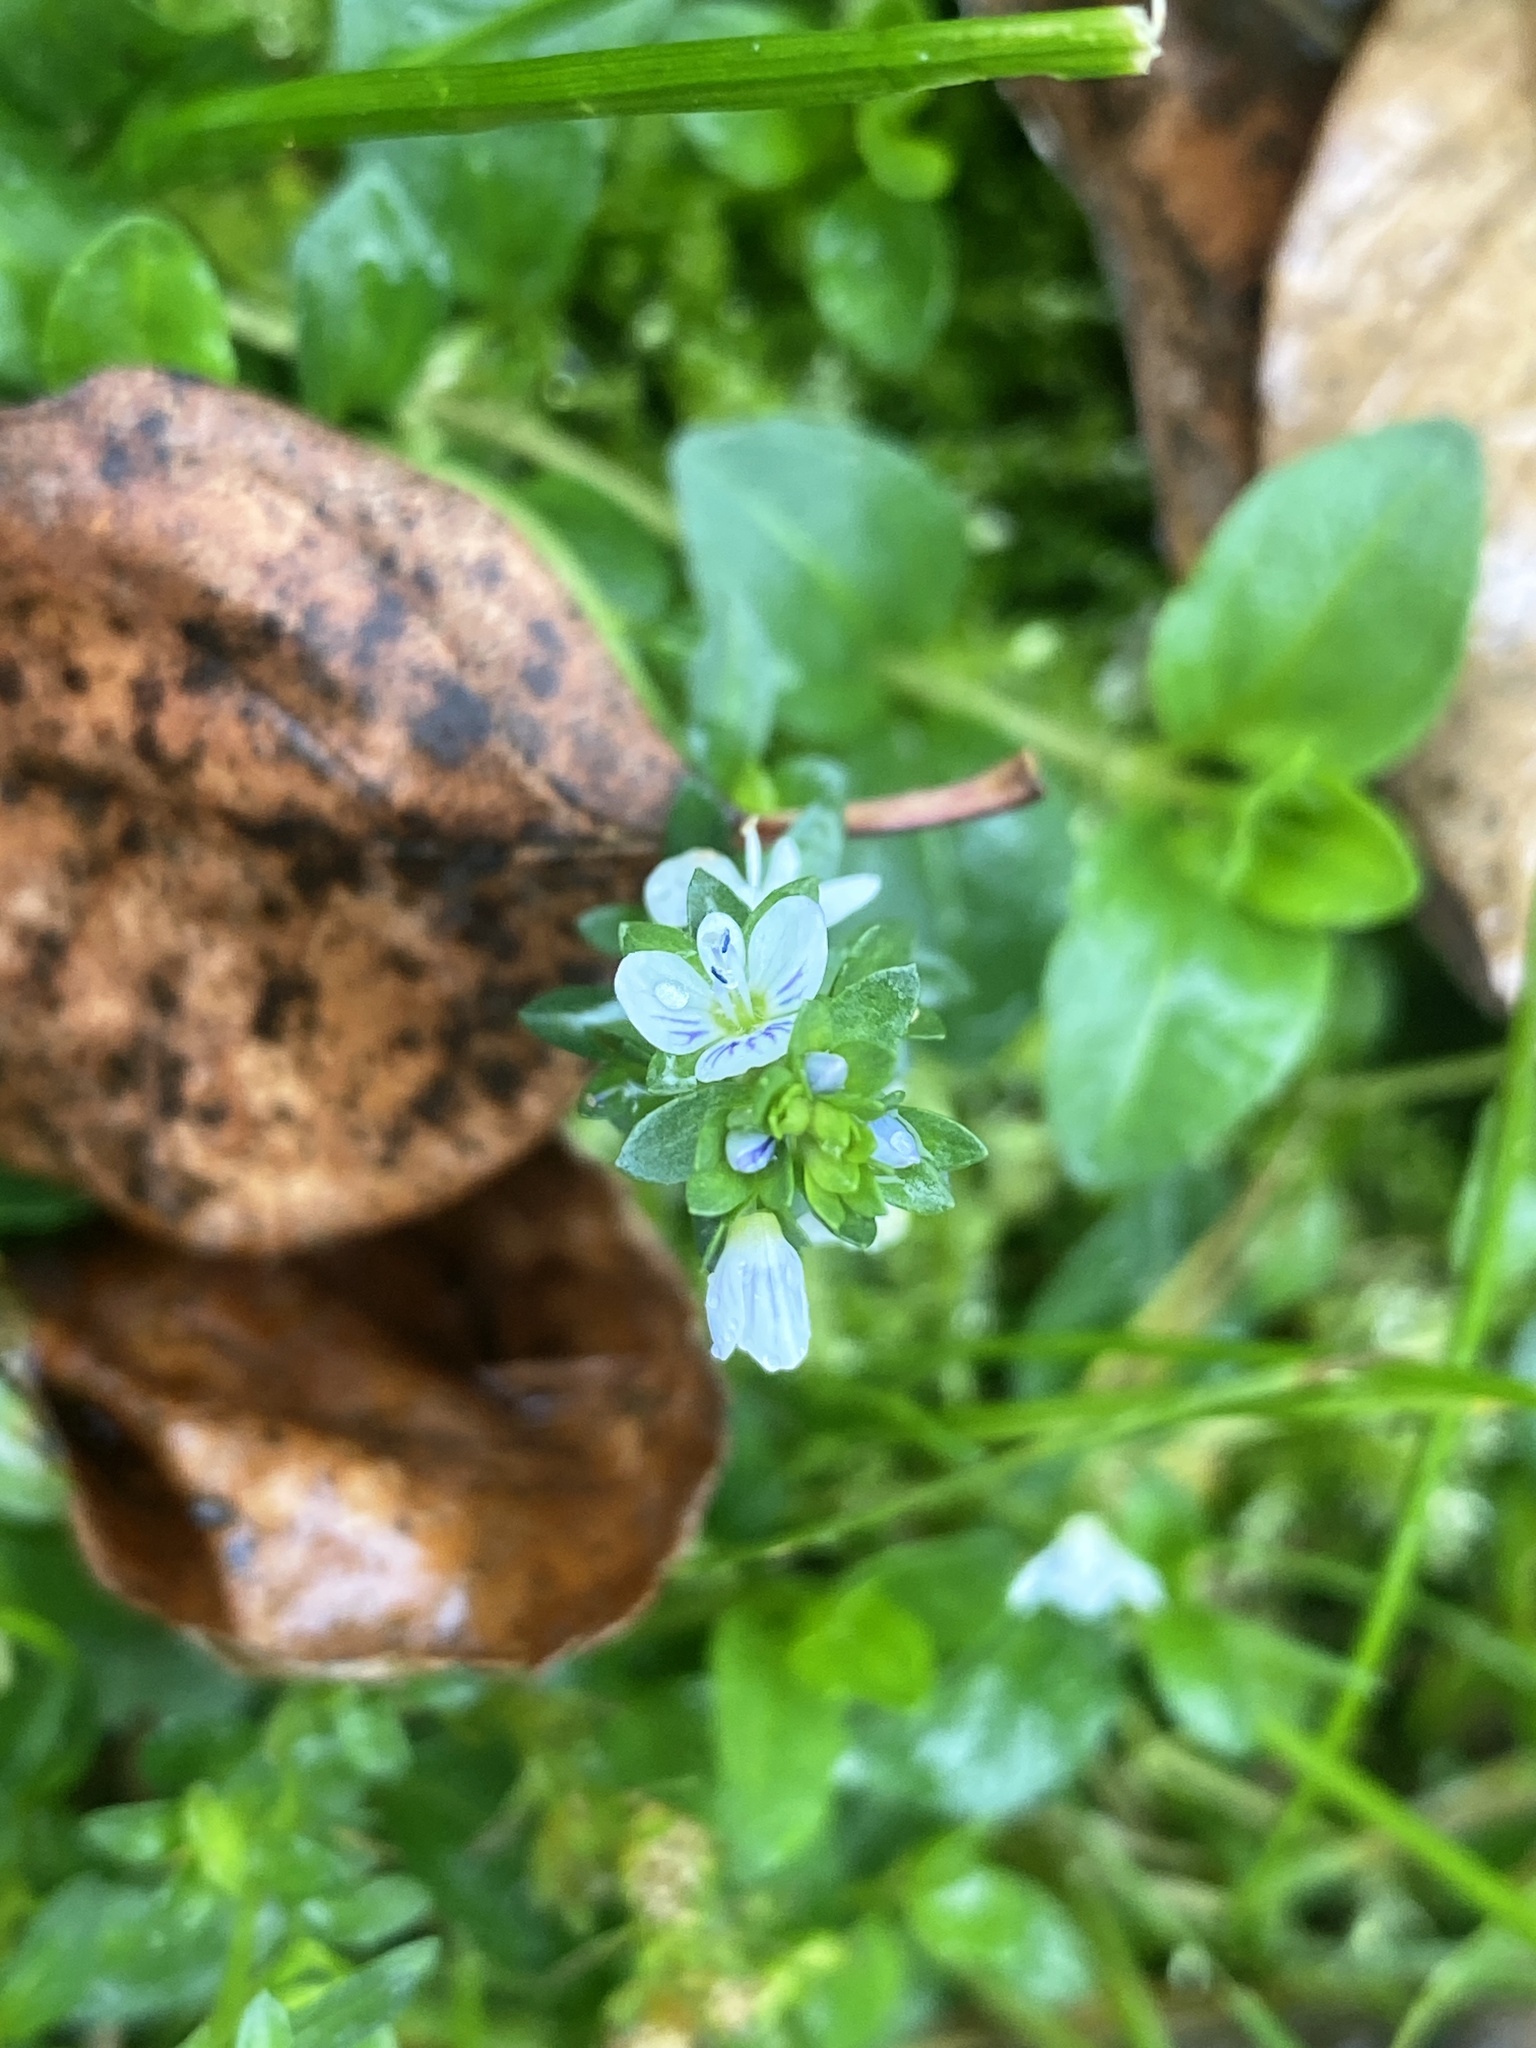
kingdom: Plantae
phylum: Tracheophyta
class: Magnoliopsida
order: Lamiales
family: Plantaginaceae
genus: Veronica
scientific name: Veronica serpyllifolia
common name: Thyme-leaved speedwell
